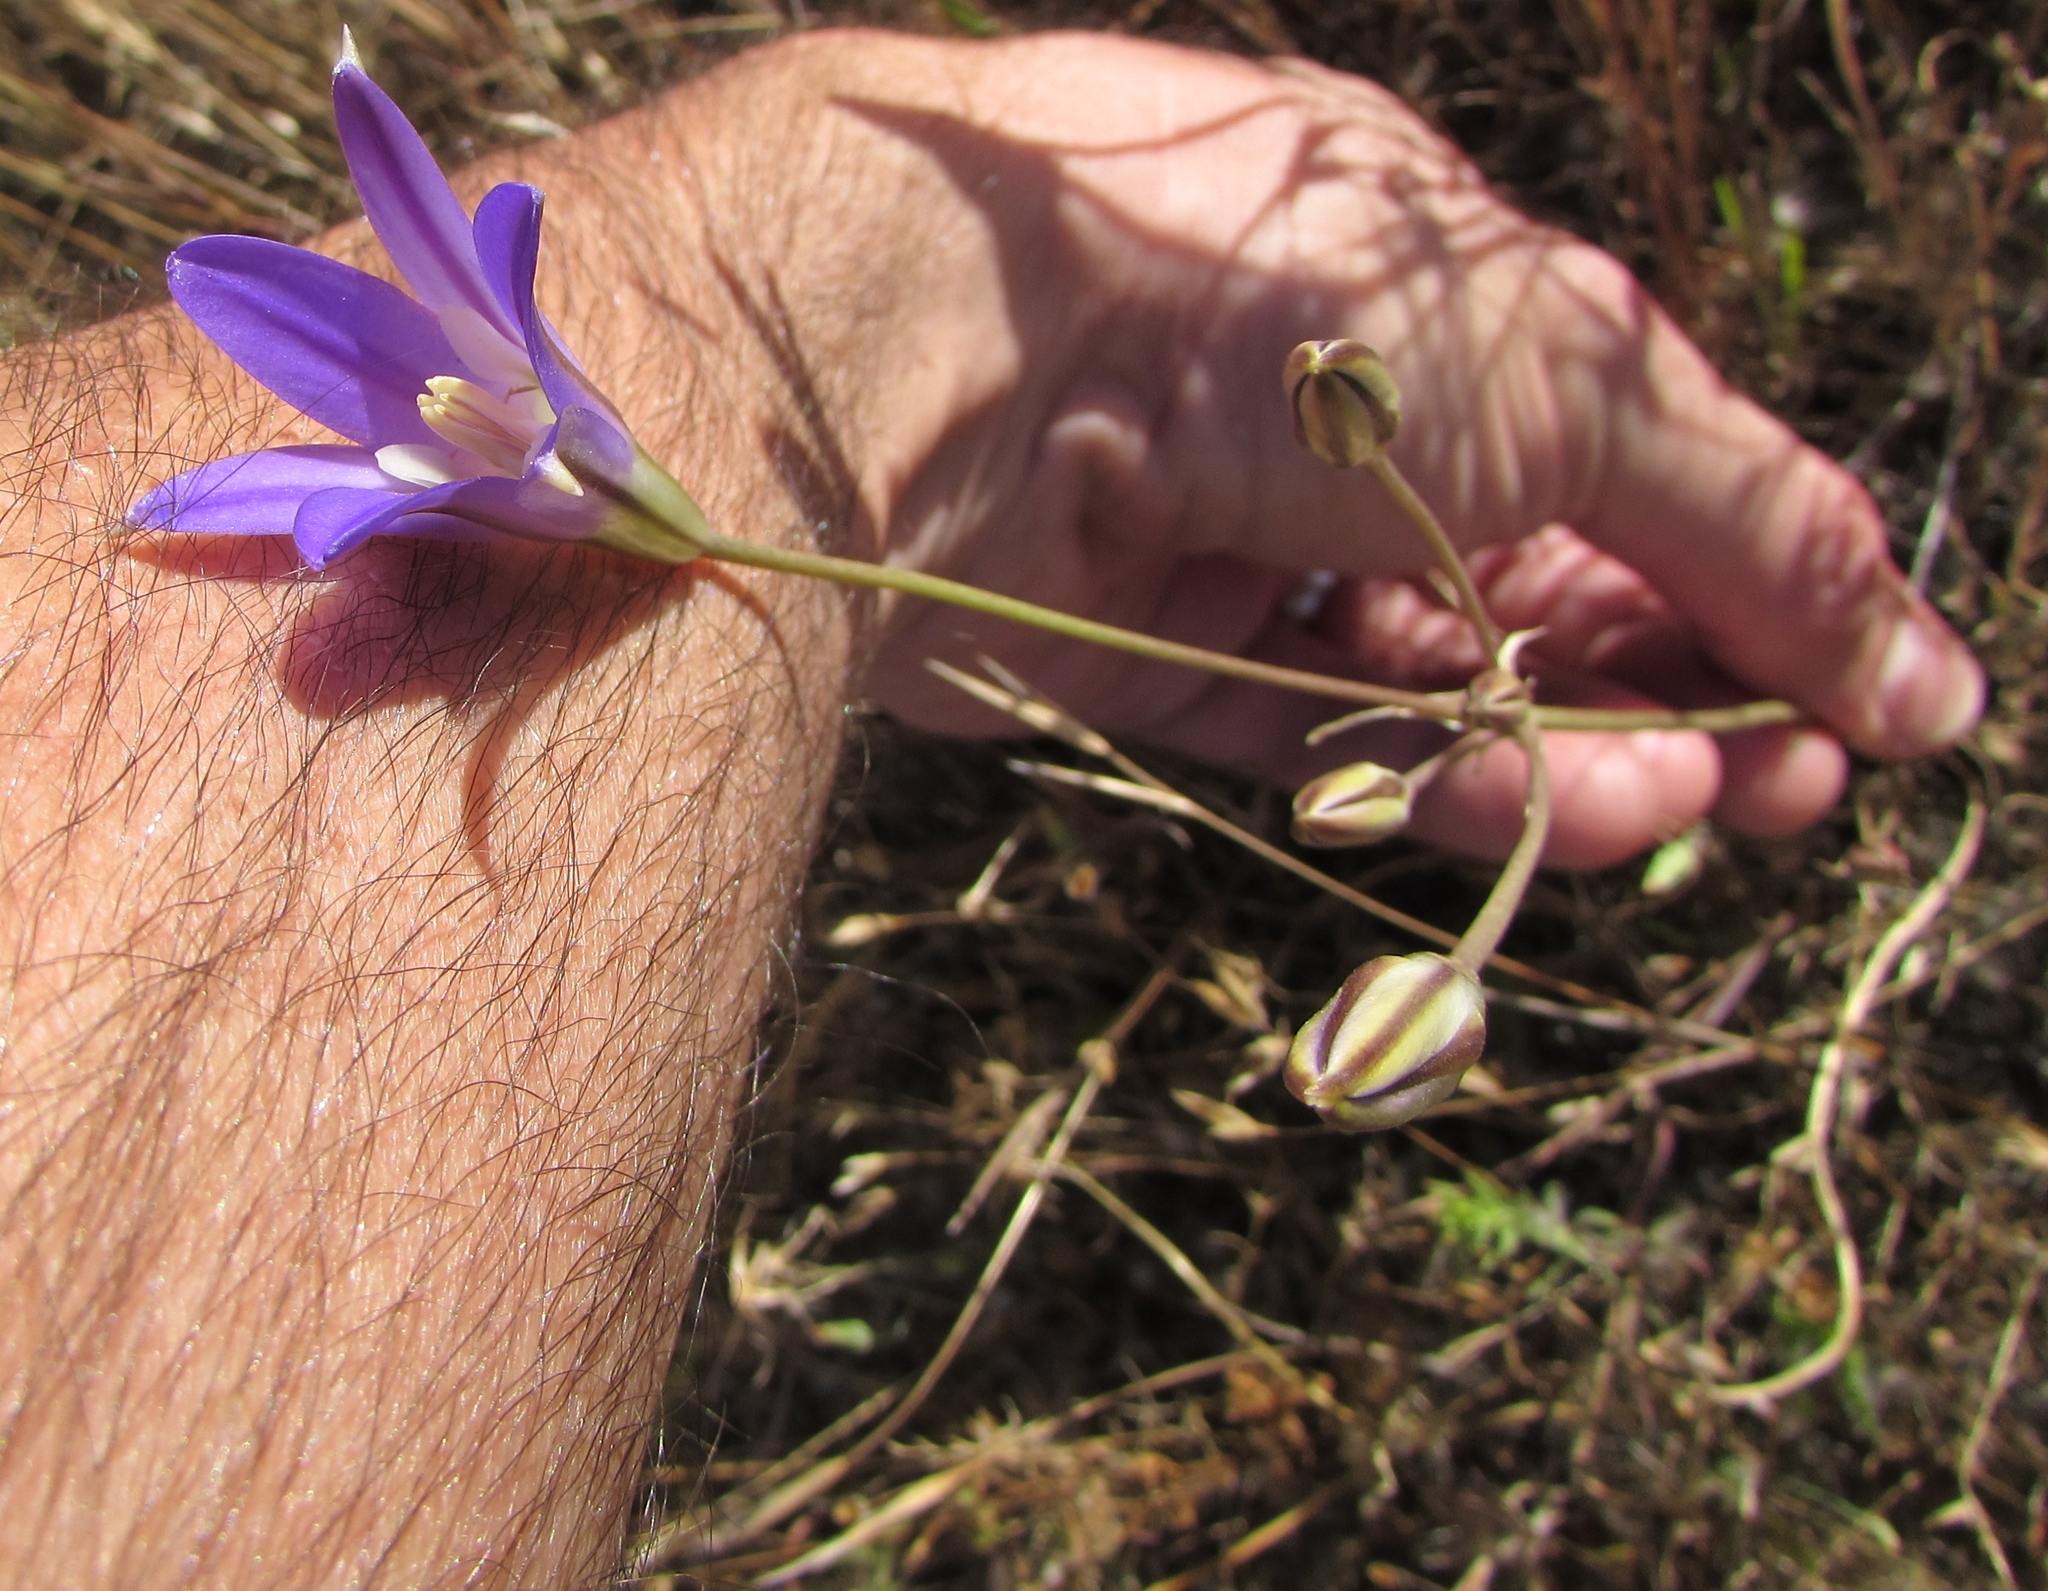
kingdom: Plantae
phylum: Tracheophyta
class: Liliopsida
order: Asparagales
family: Asparagaceae
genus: Brodiaea
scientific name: Brodiaea elegans
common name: Elegant cluster-lily
